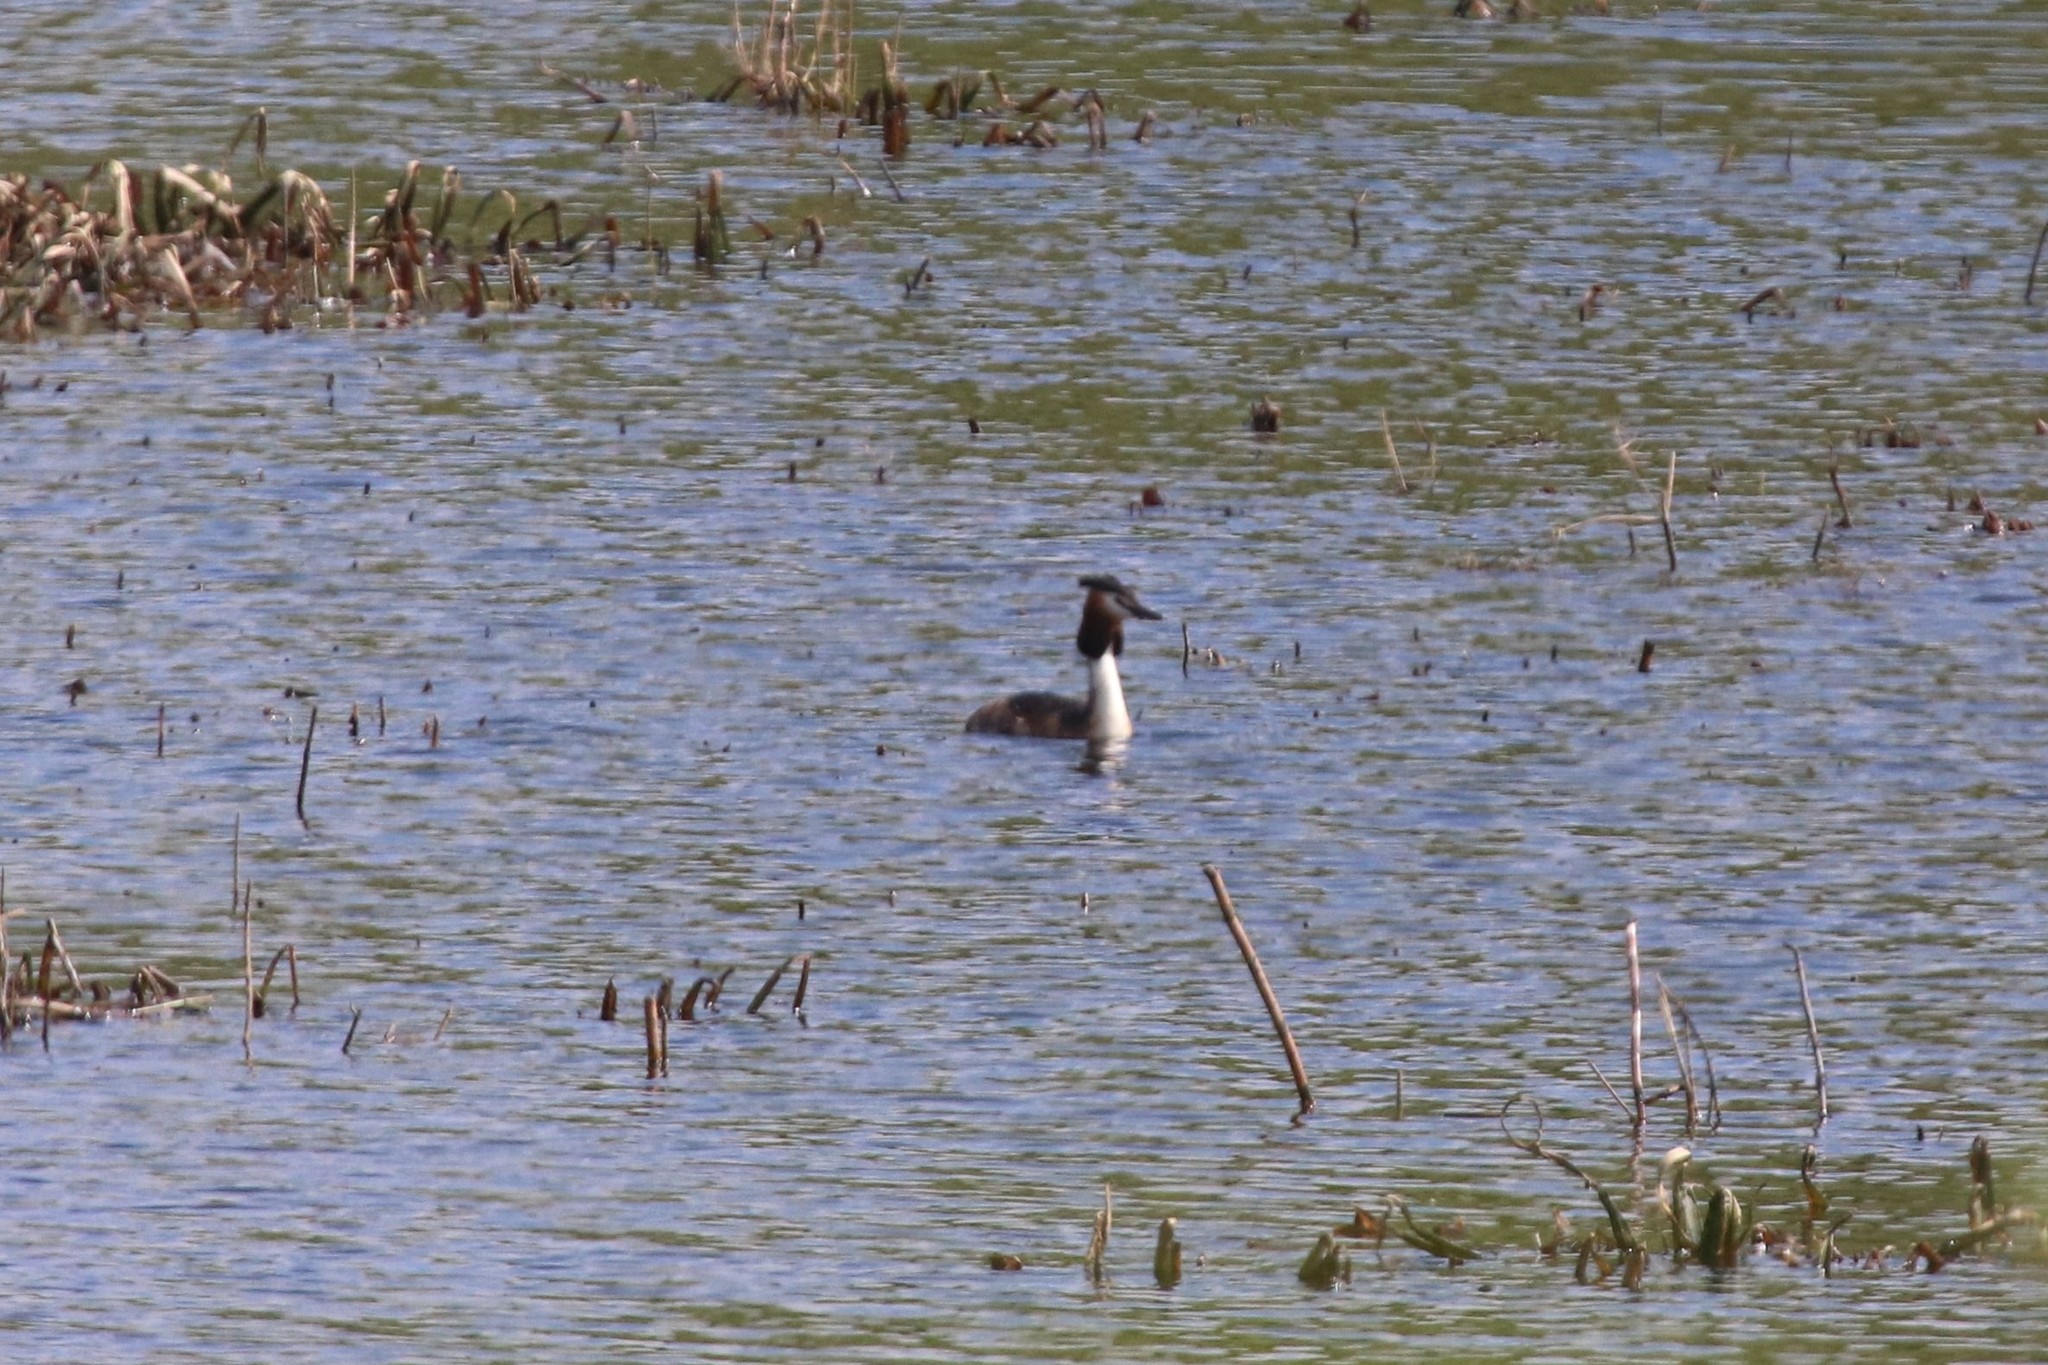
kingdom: Animalia
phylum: Chordata
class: Aves
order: Podicipediformes
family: Podicipedidae
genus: Podiceps
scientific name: Podiceps cristatus
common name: Great crested grebe
